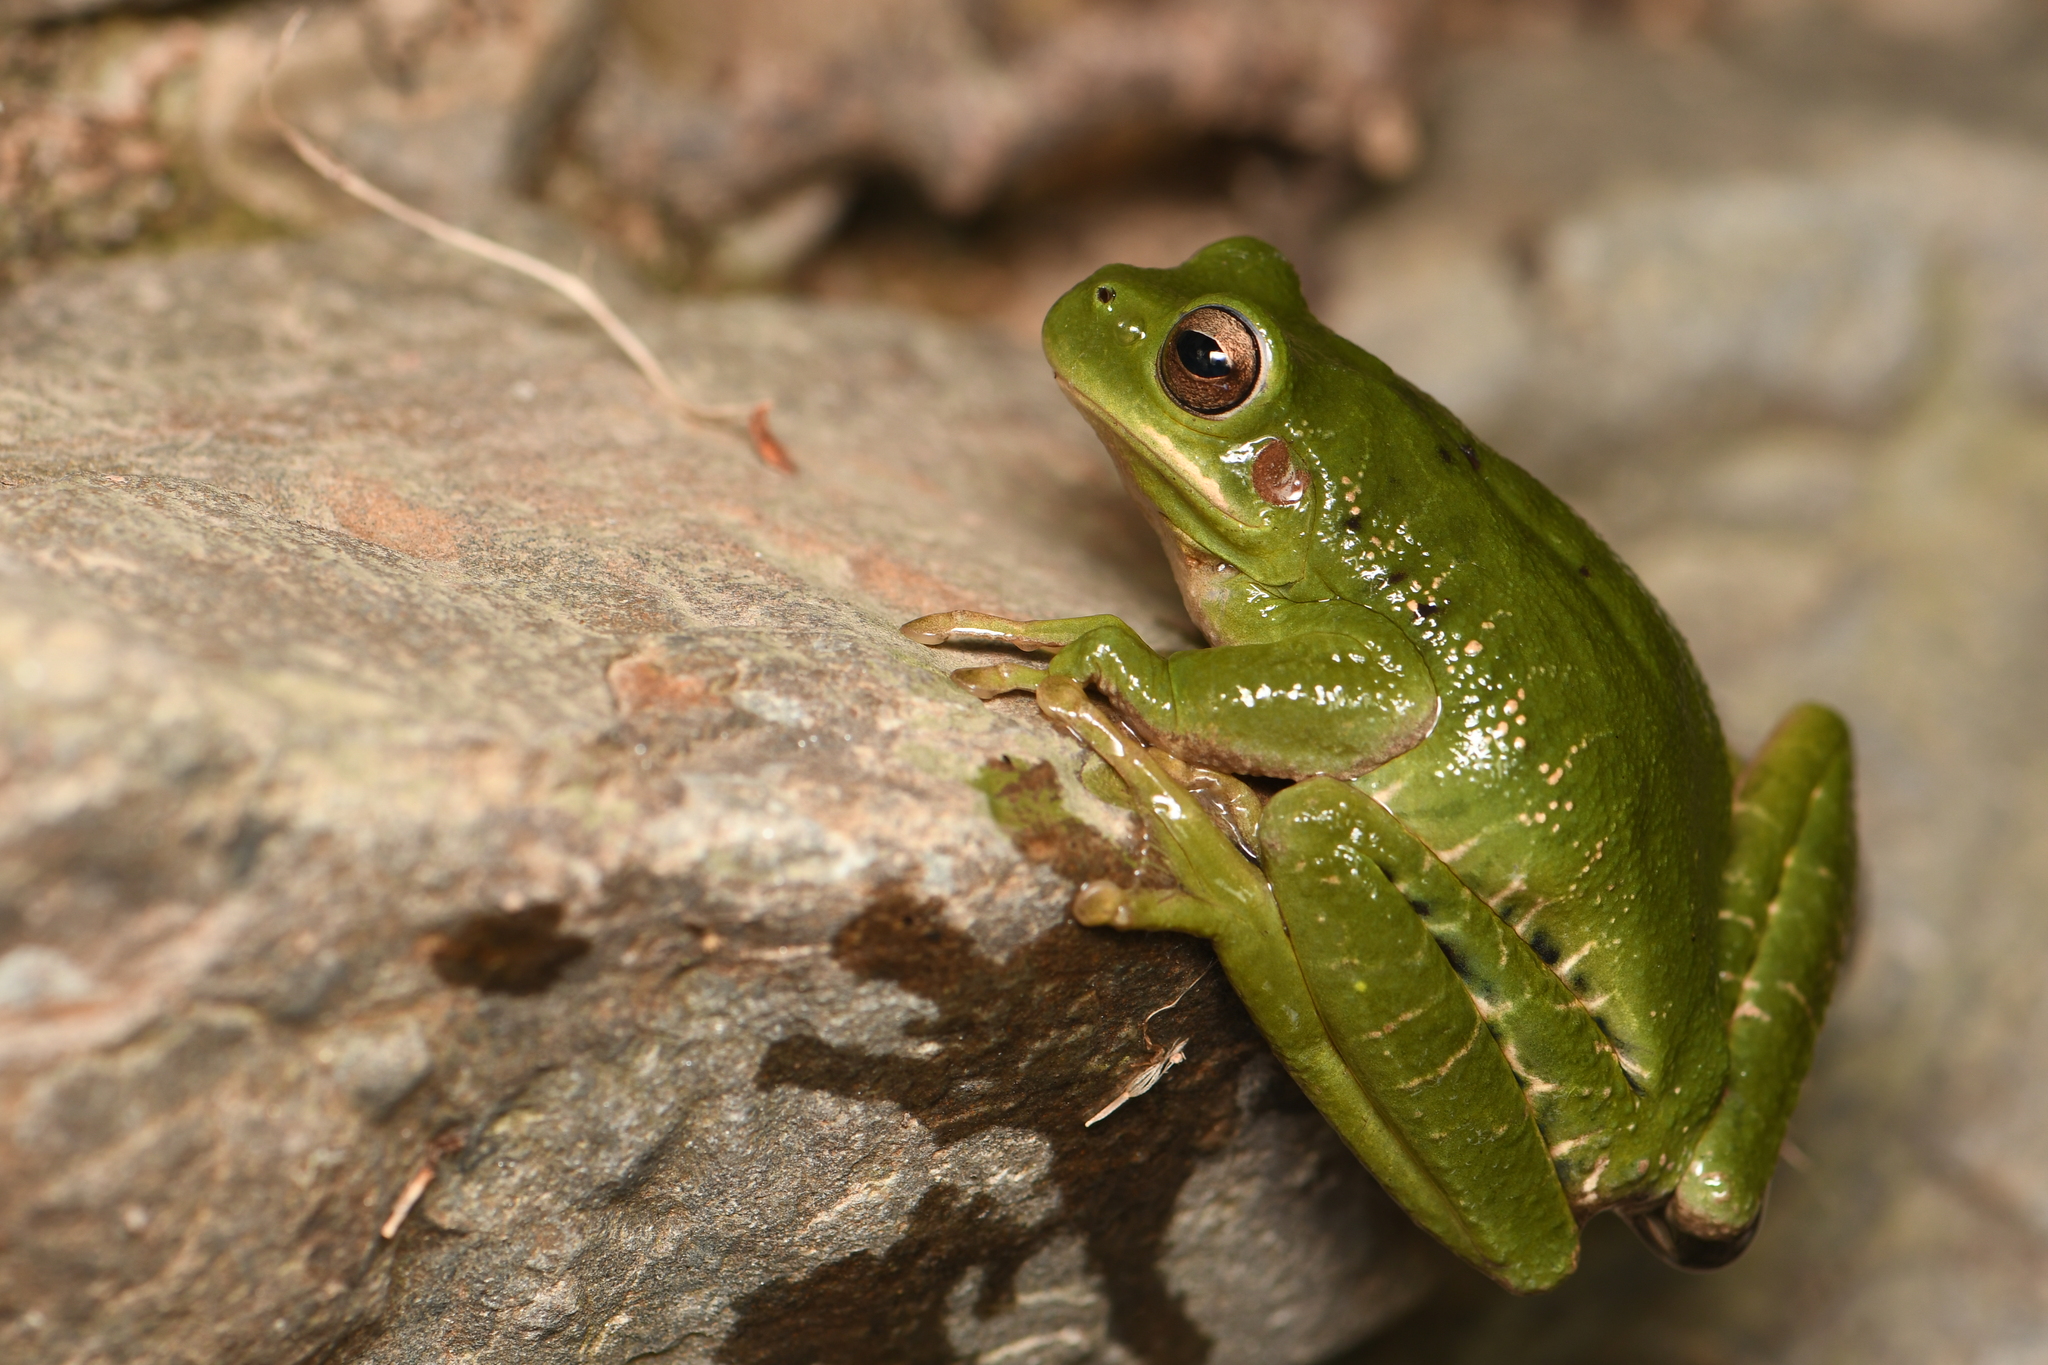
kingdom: Animalia
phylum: Chordata
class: Amphibia
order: Anura
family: Hylidae
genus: Boana
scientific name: Boana riojana
